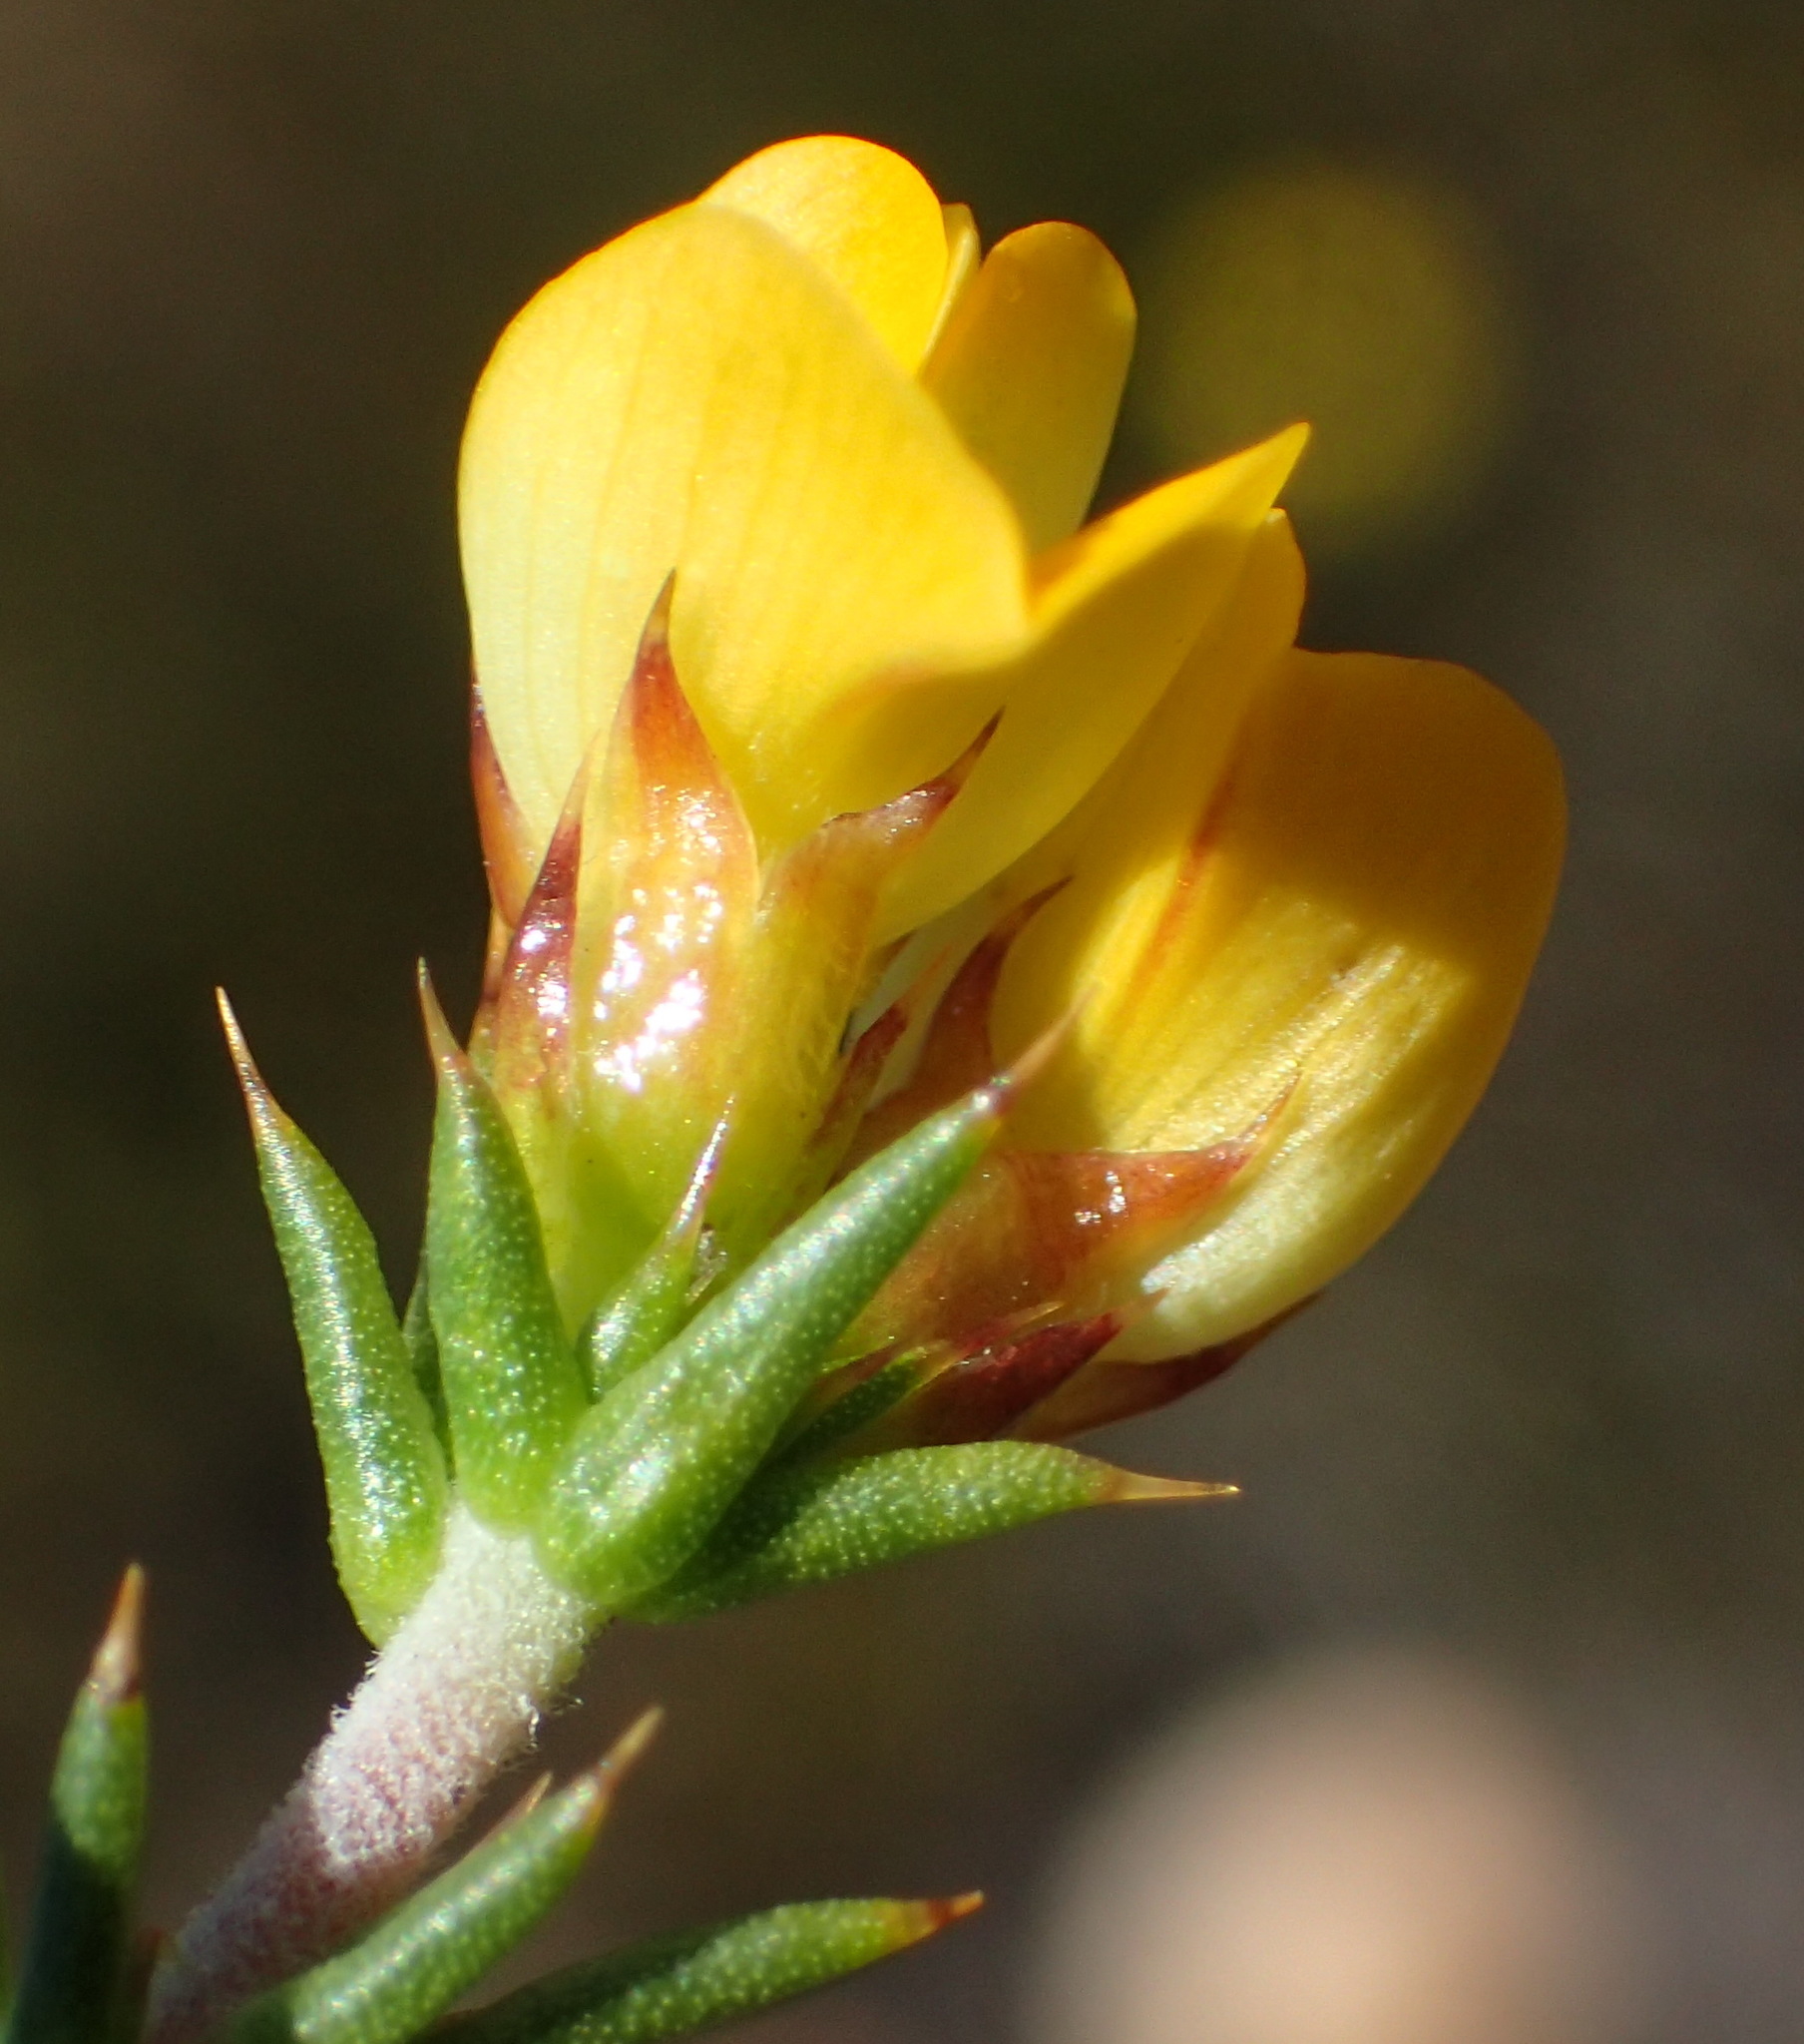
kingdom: Plantae
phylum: Tracheophyta
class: Magnoliopsida
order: Fabales
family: Fabaceae
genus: Aspalathus
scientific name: Aspalathus aciphylla
